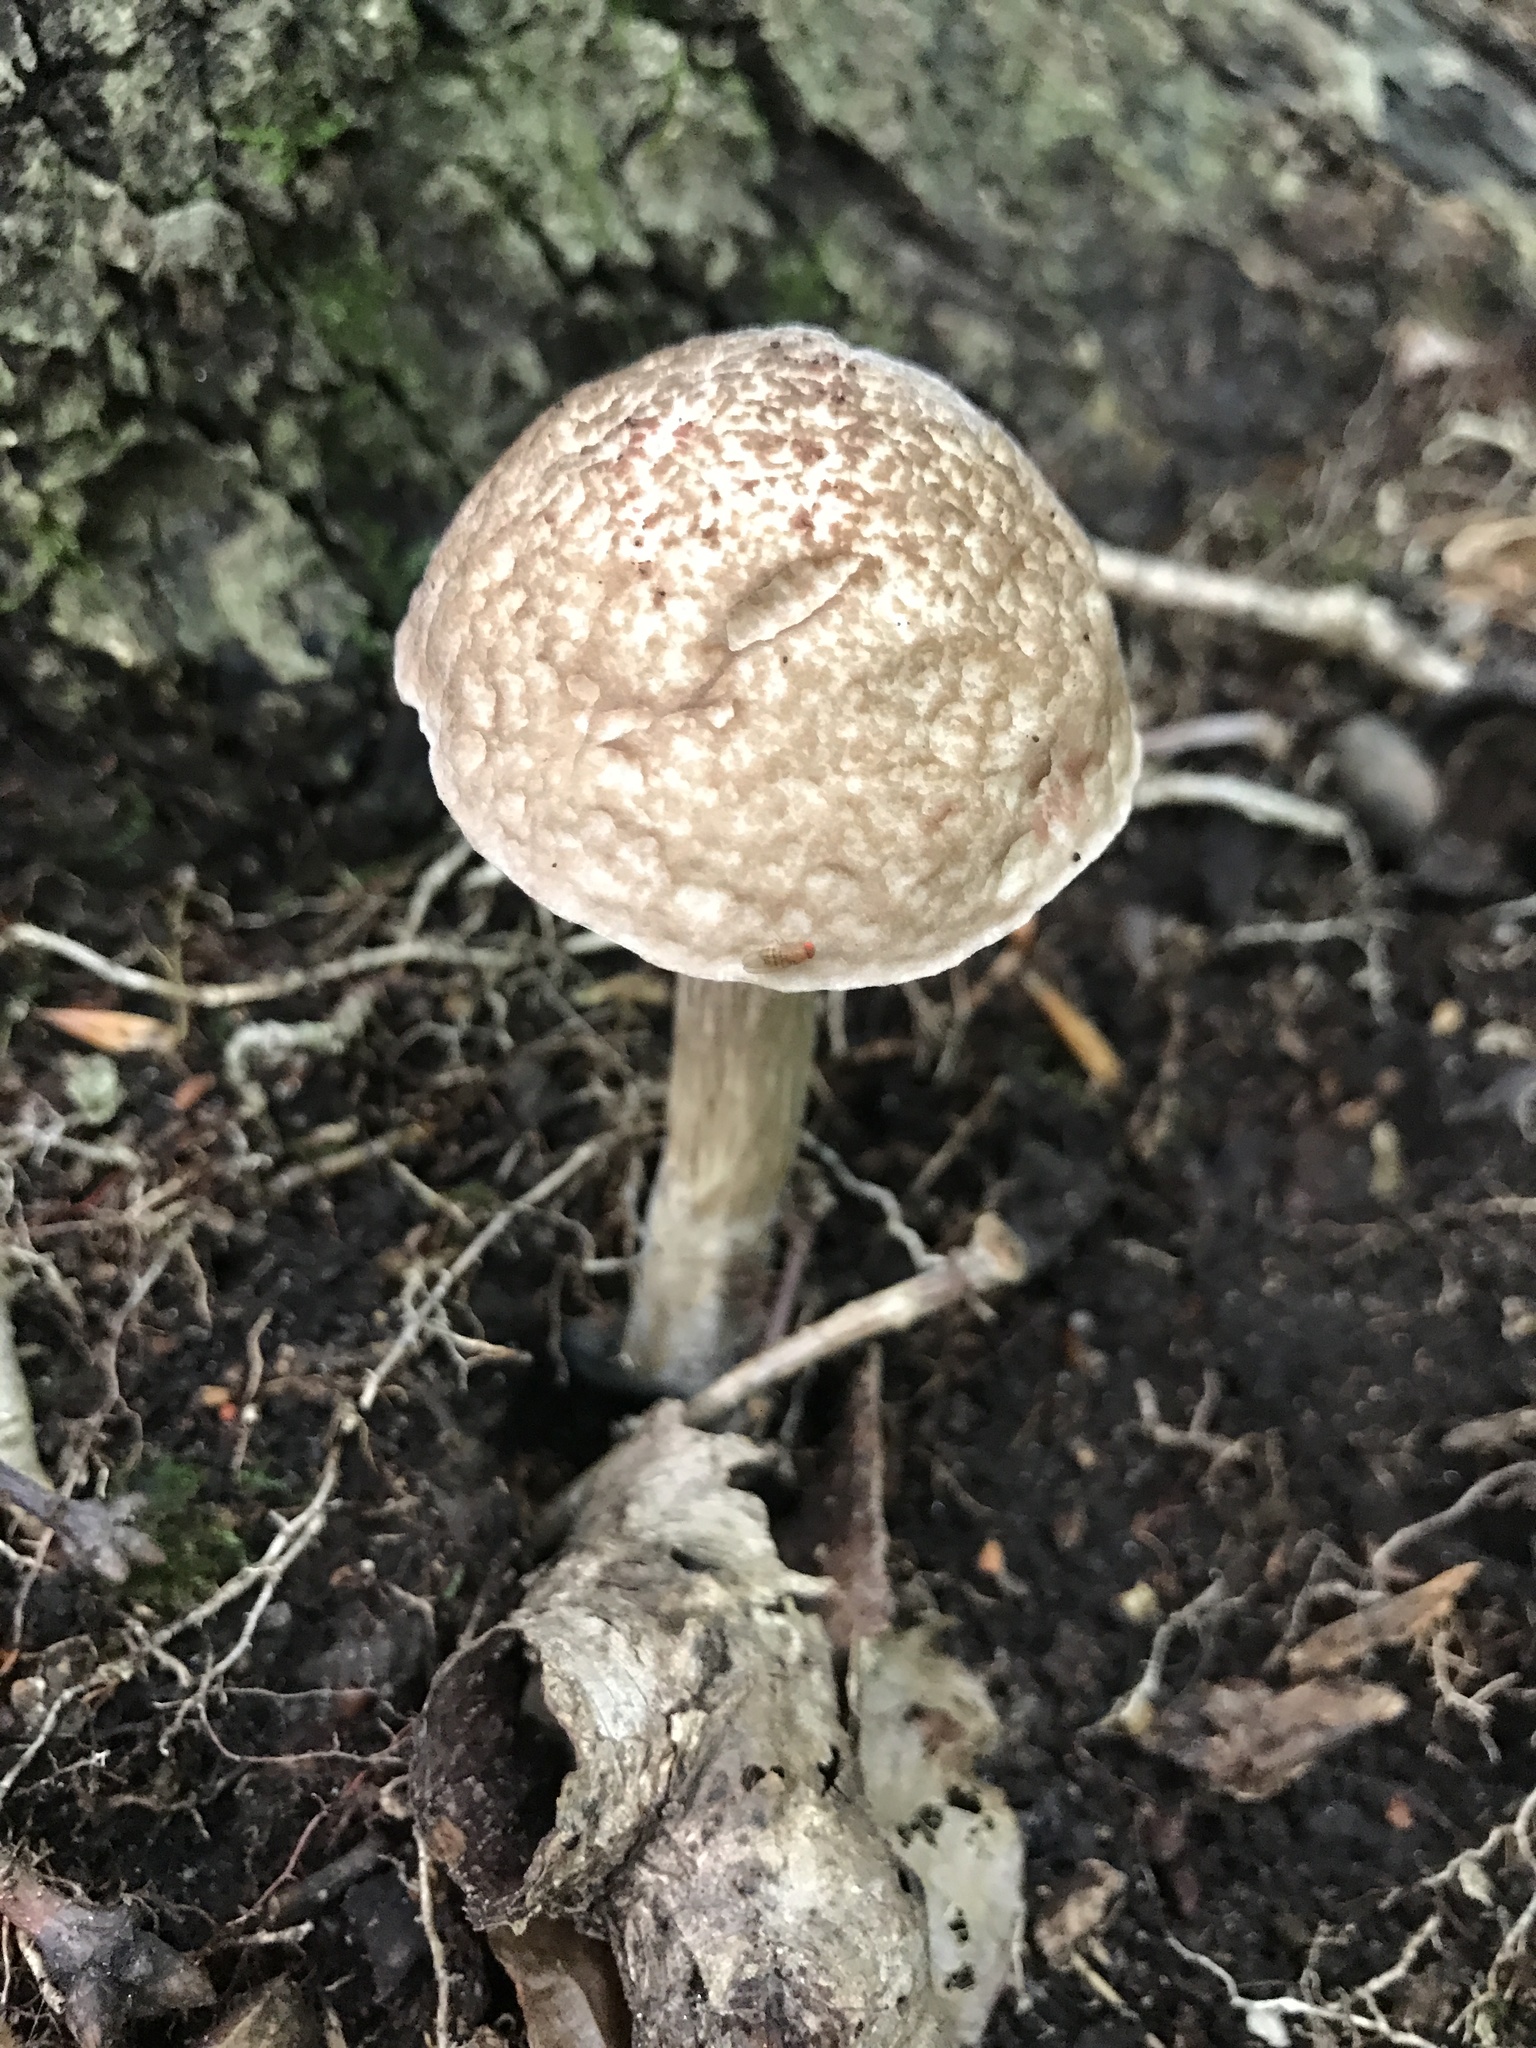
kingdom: Fungi
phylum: Basidiomycota
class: Agaricomycetes
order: Boletales
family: Boletaceae
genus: Leccinellum
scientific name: Leccinellum albellum
